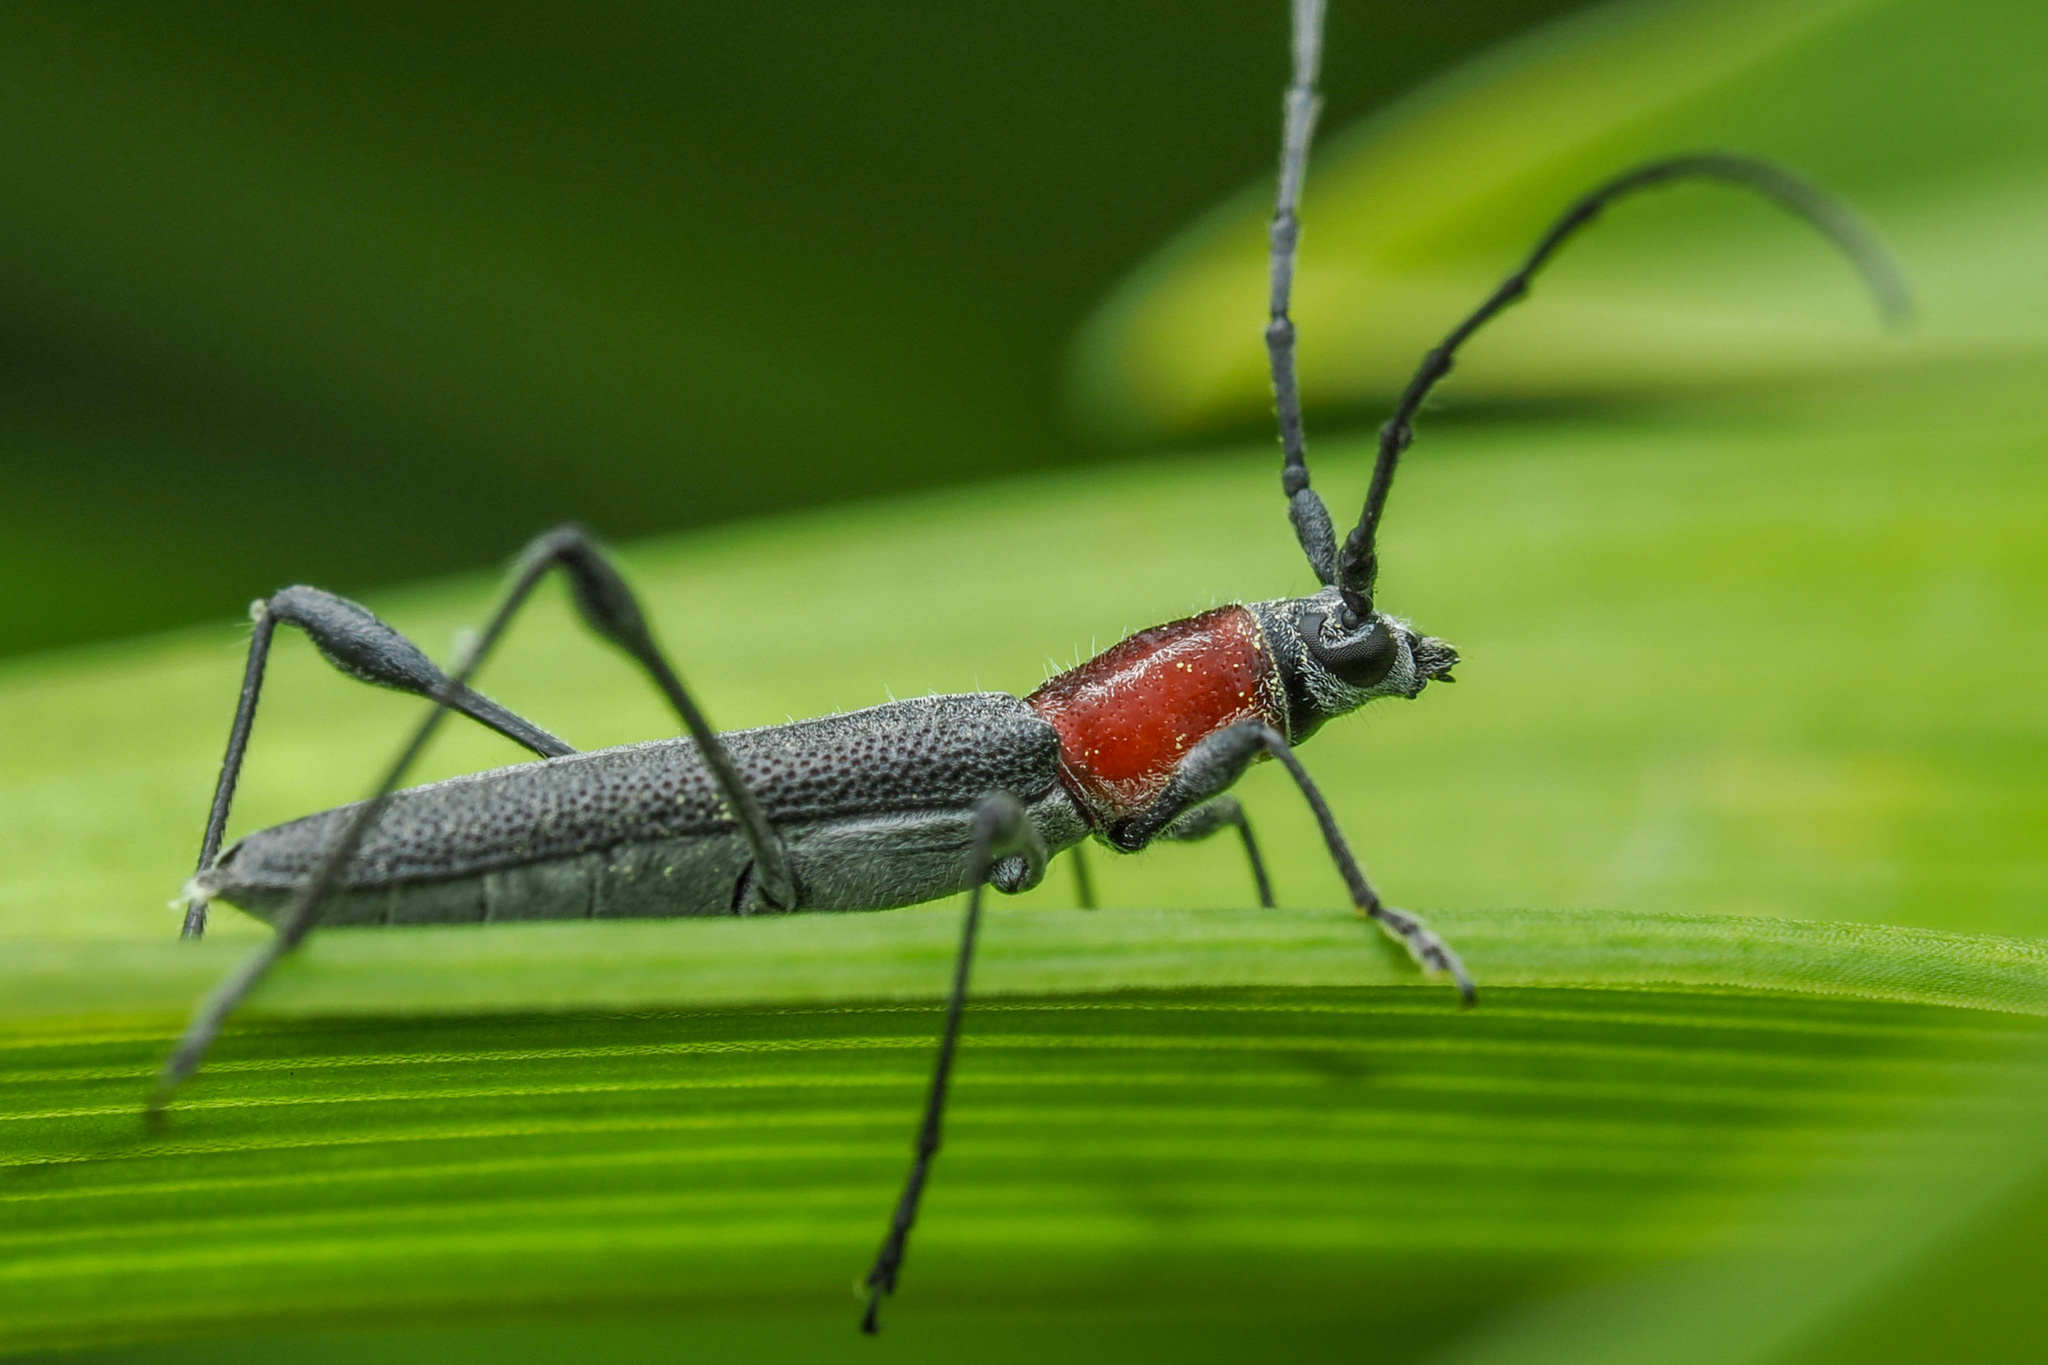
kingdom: Animalia
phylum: Arthropoda
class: Insecta
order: Coleoptera
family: Cerambycidae
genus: Rhopalophora
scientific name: Rhopalophora longipes
